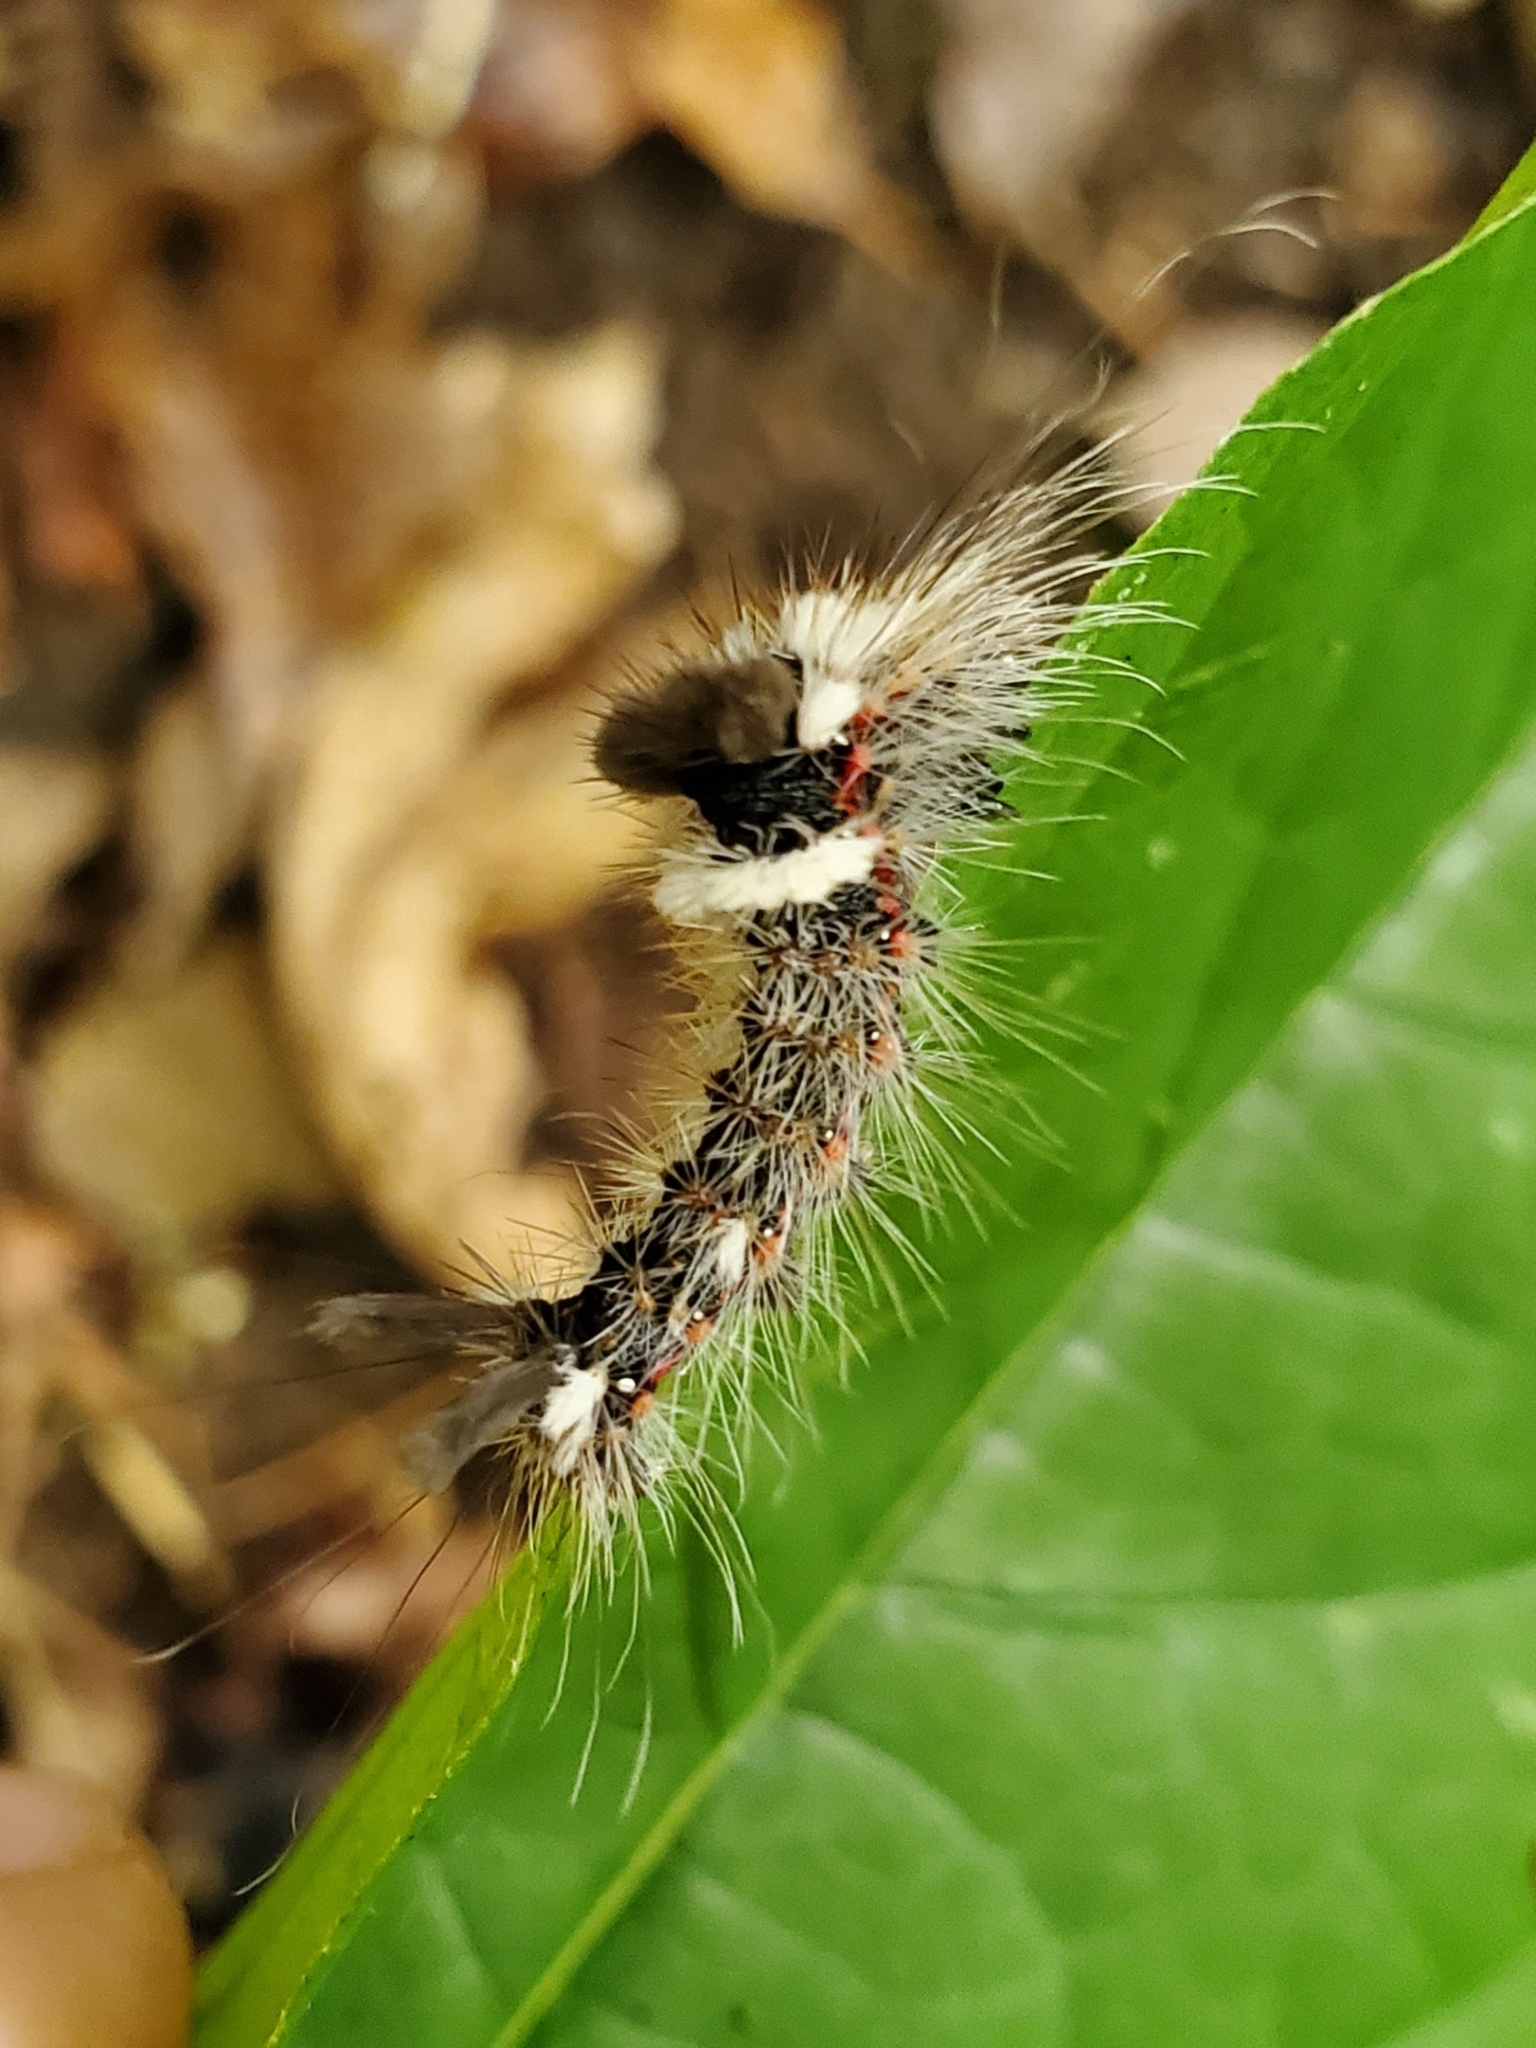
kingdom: Animalia
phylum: Arthropoda
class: Insecta
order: Lepidoptera
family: Noctuidae
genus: Acronicta
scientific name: Acronicta impleta
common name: Powdered dagger
